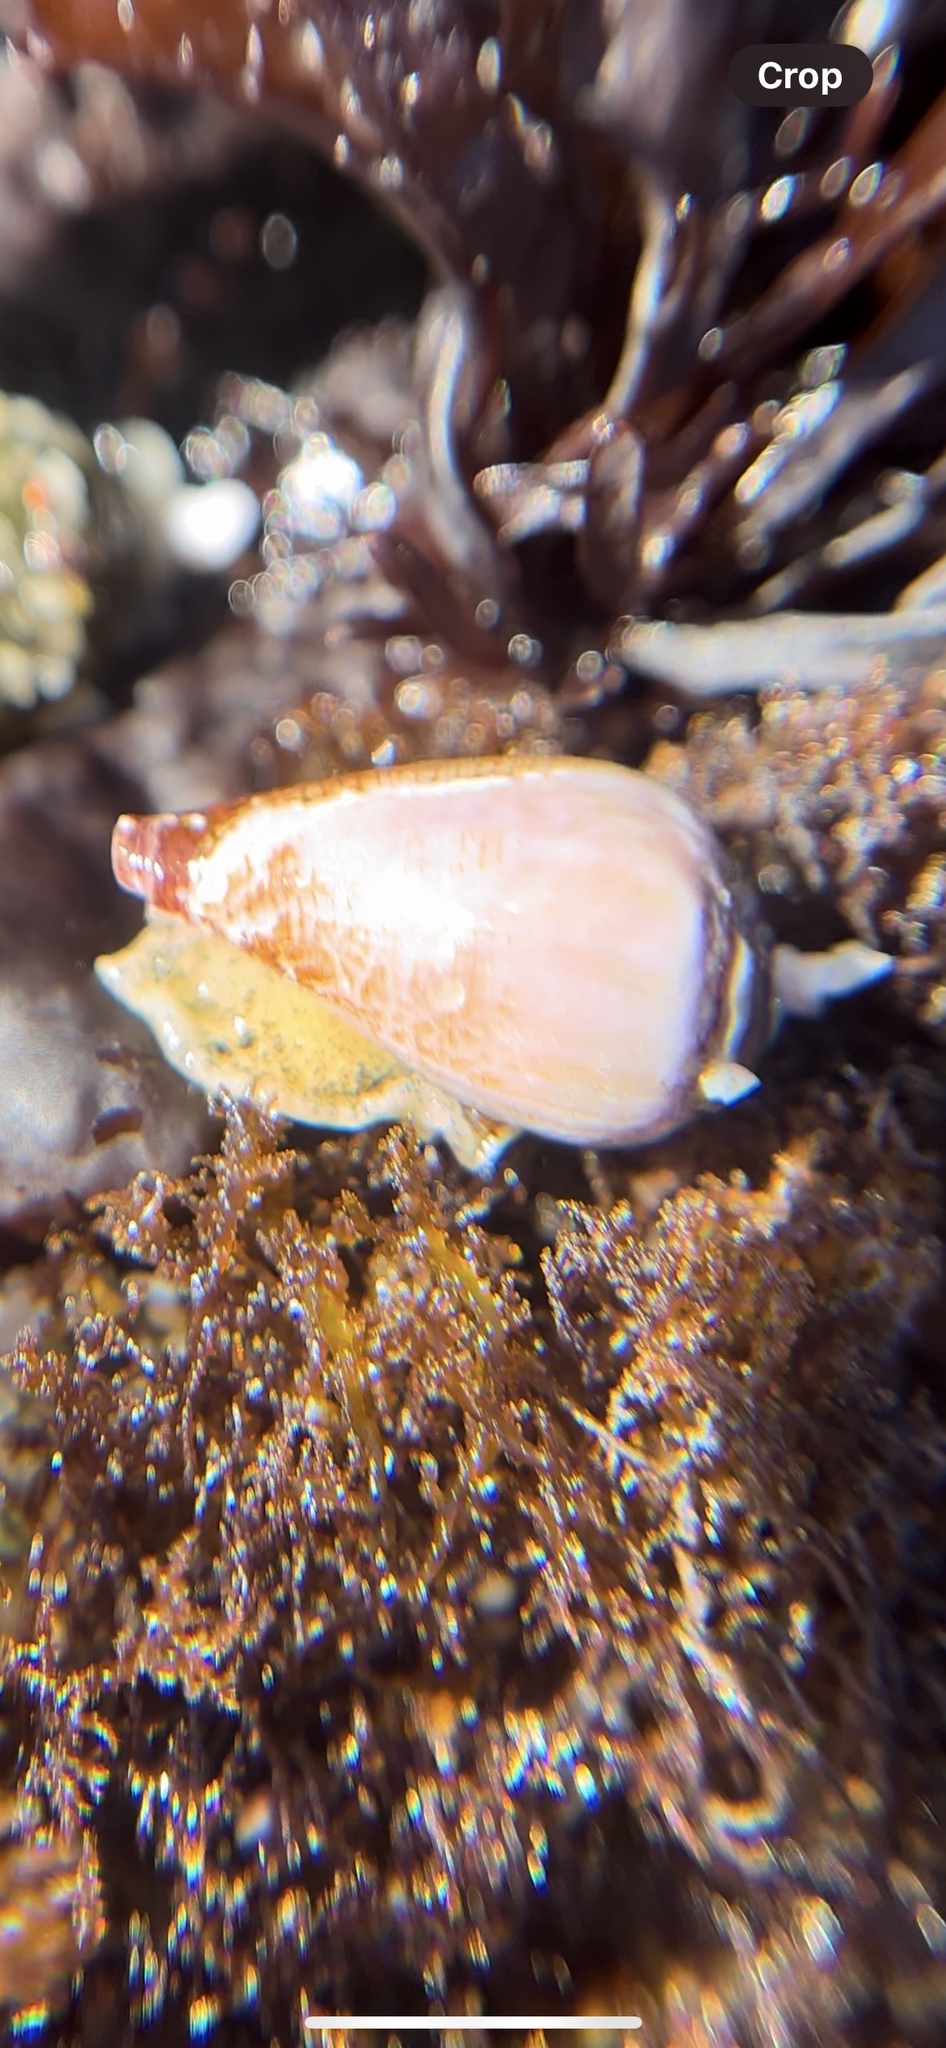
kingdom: Animalia
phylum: Mollusca
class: Gastropoda
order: Neogastropoda
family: Conidae
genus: Californiconus
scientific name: Californiconus californicus
